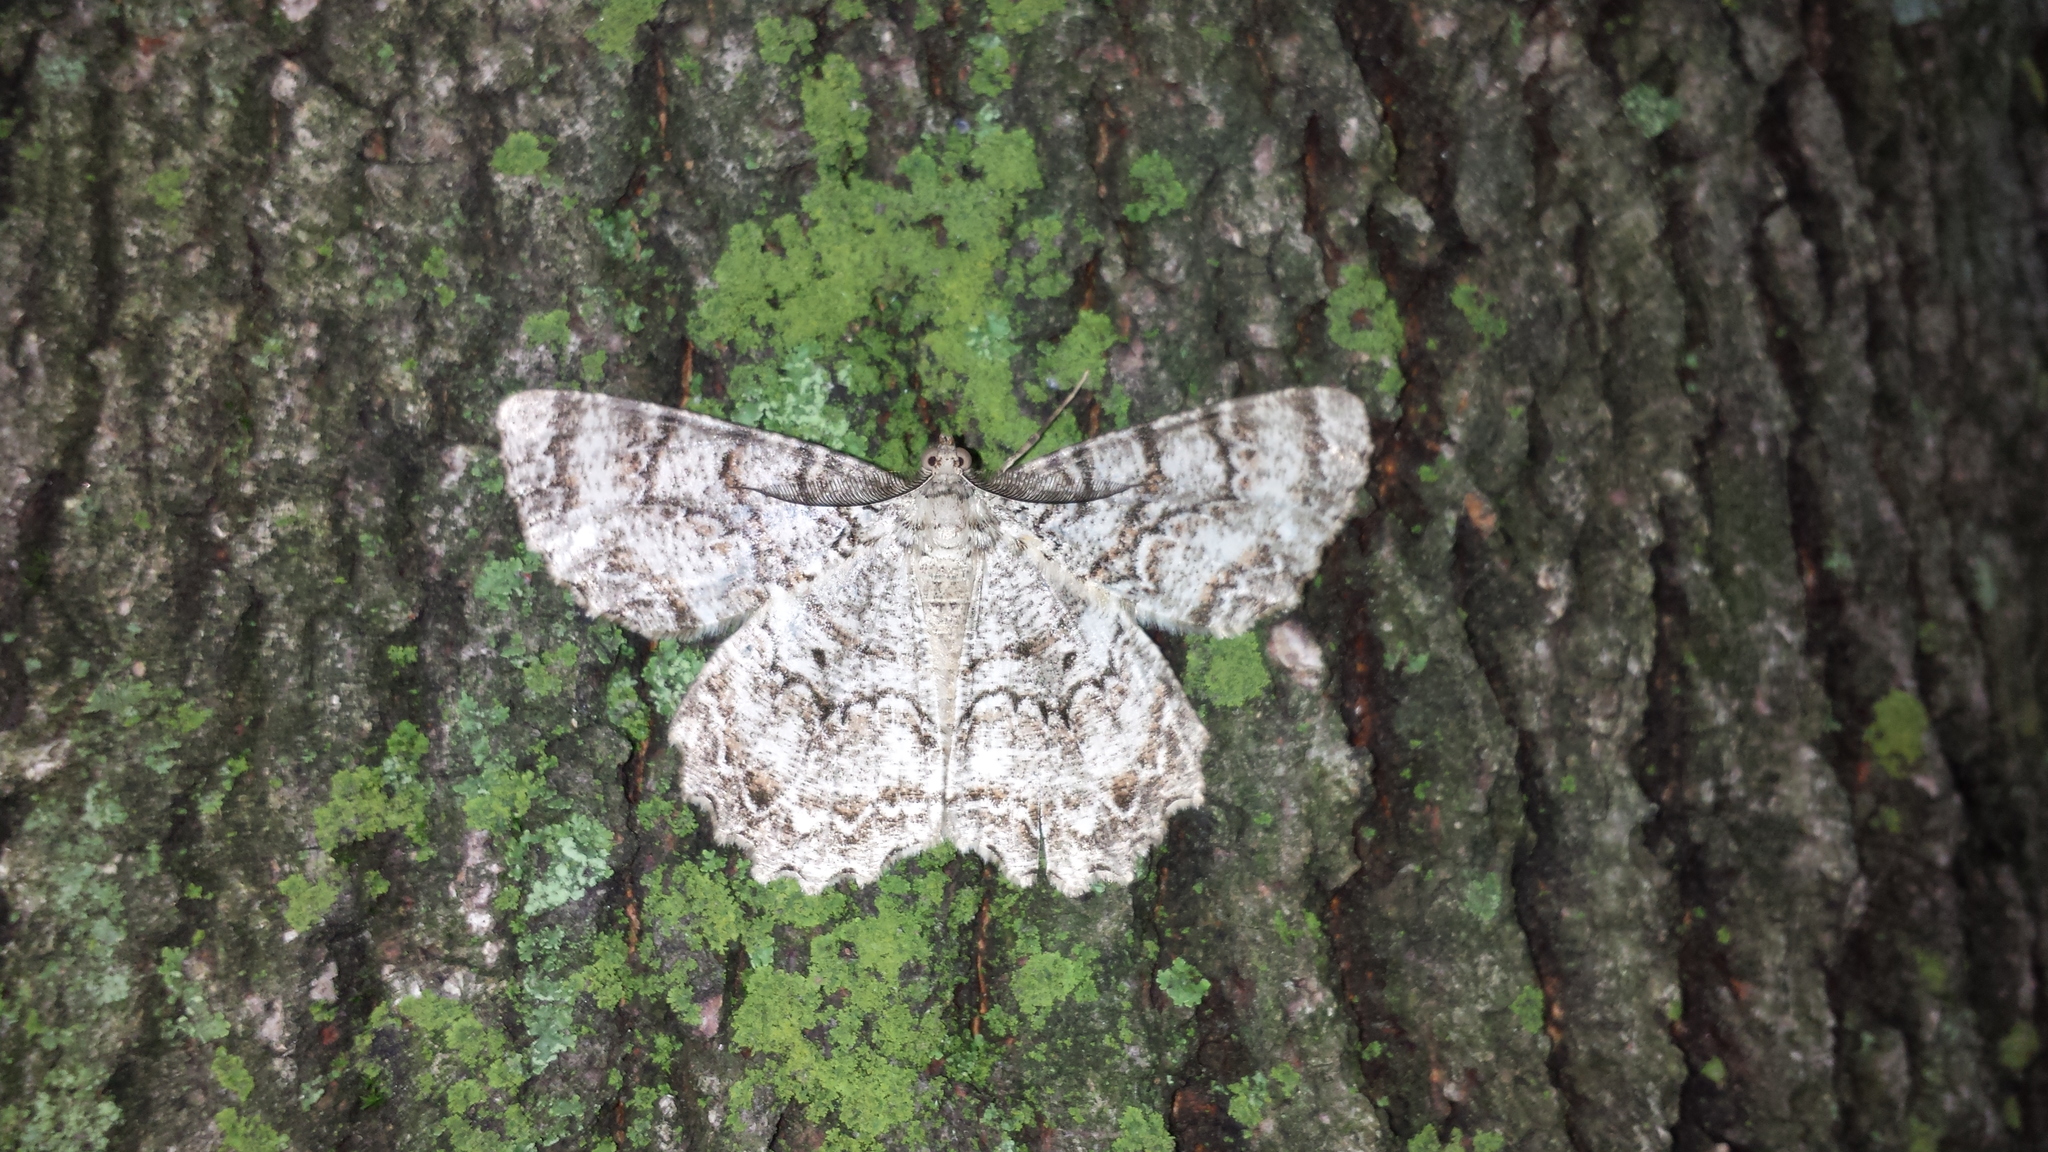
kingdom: Animalia
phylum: Arthropoda
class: Insecta
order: Lepidoptera
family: Geometridae
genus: Epimecis
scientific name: Epimecis hortaria
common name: Tulip-tree beauty
